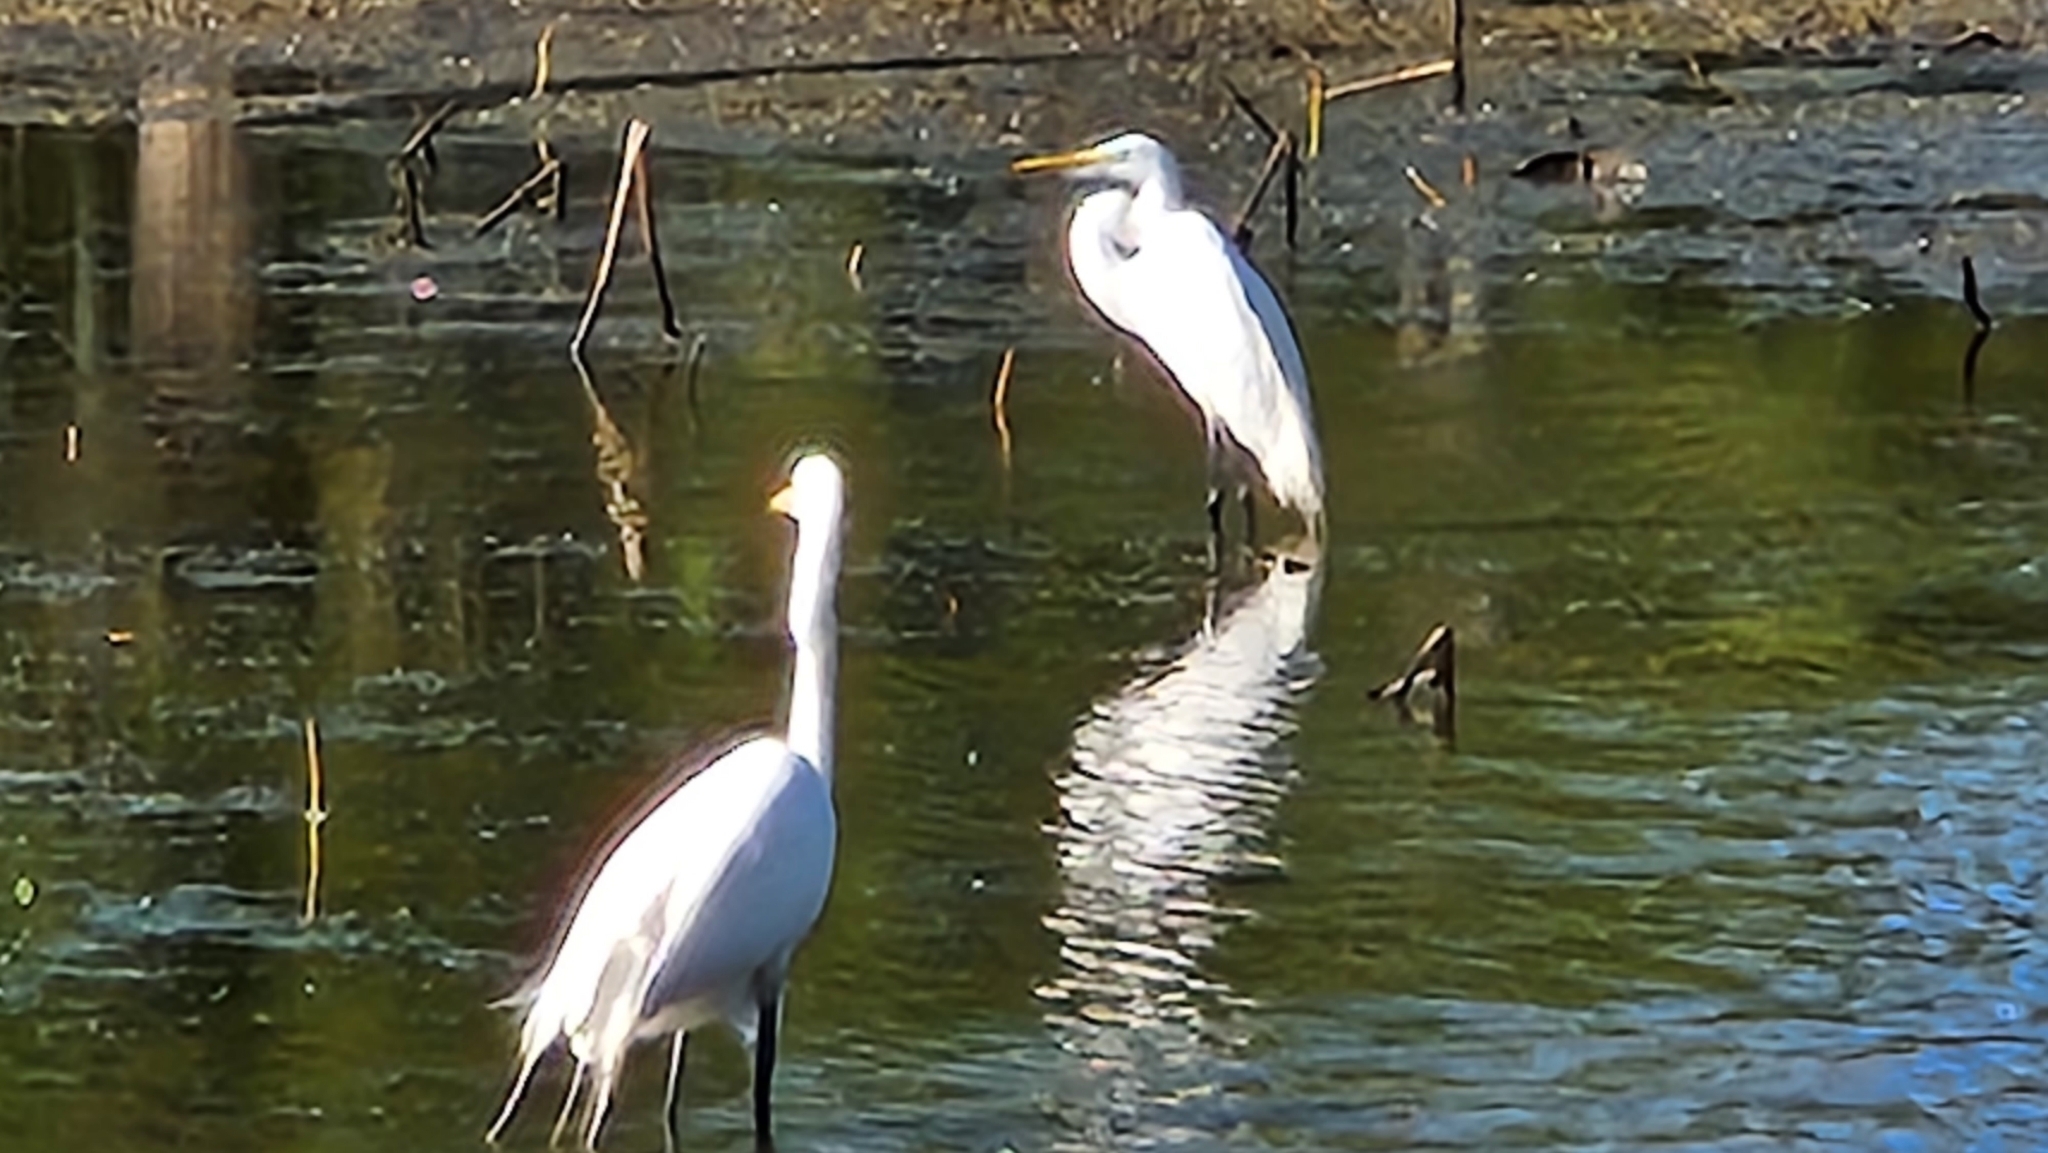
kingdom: Animalia
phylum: Chordata
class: Aves
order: Pelecaniformes
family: Ardeidae
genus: Ardea
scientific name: Ardea alba
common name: Great egret
